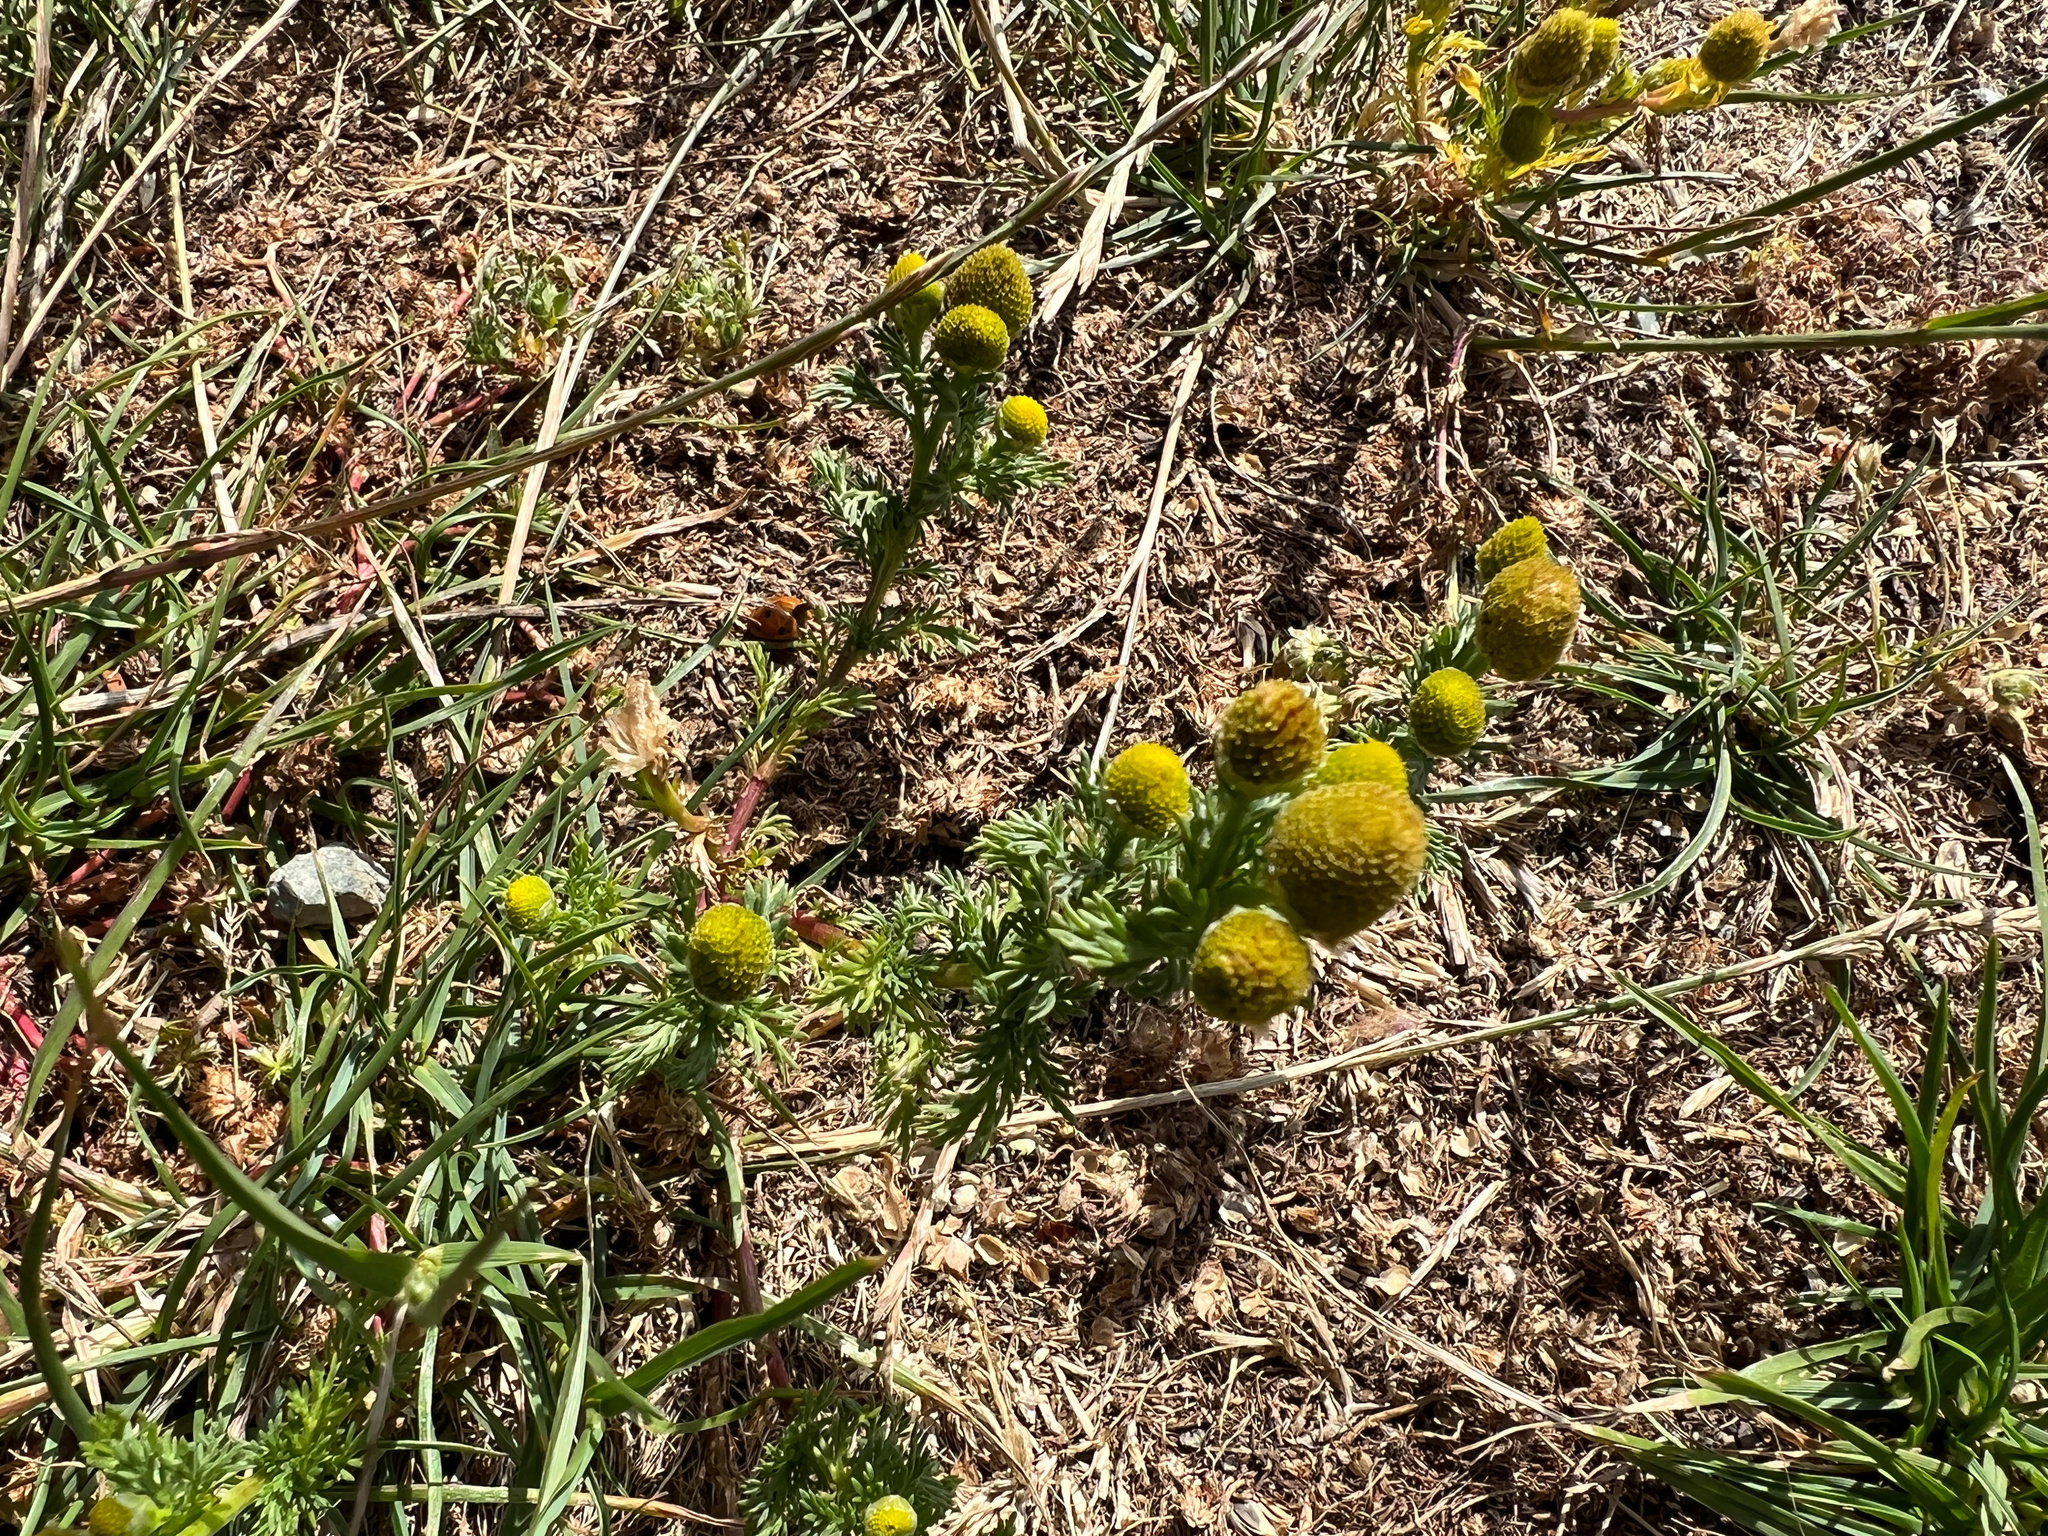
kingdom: Plantae
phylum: Tracheophyta
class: Magnoliopsida
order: Asterales
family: Asteraceae
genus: Matricaria
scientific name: Matricaria discoidea
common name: Disc mayweed
